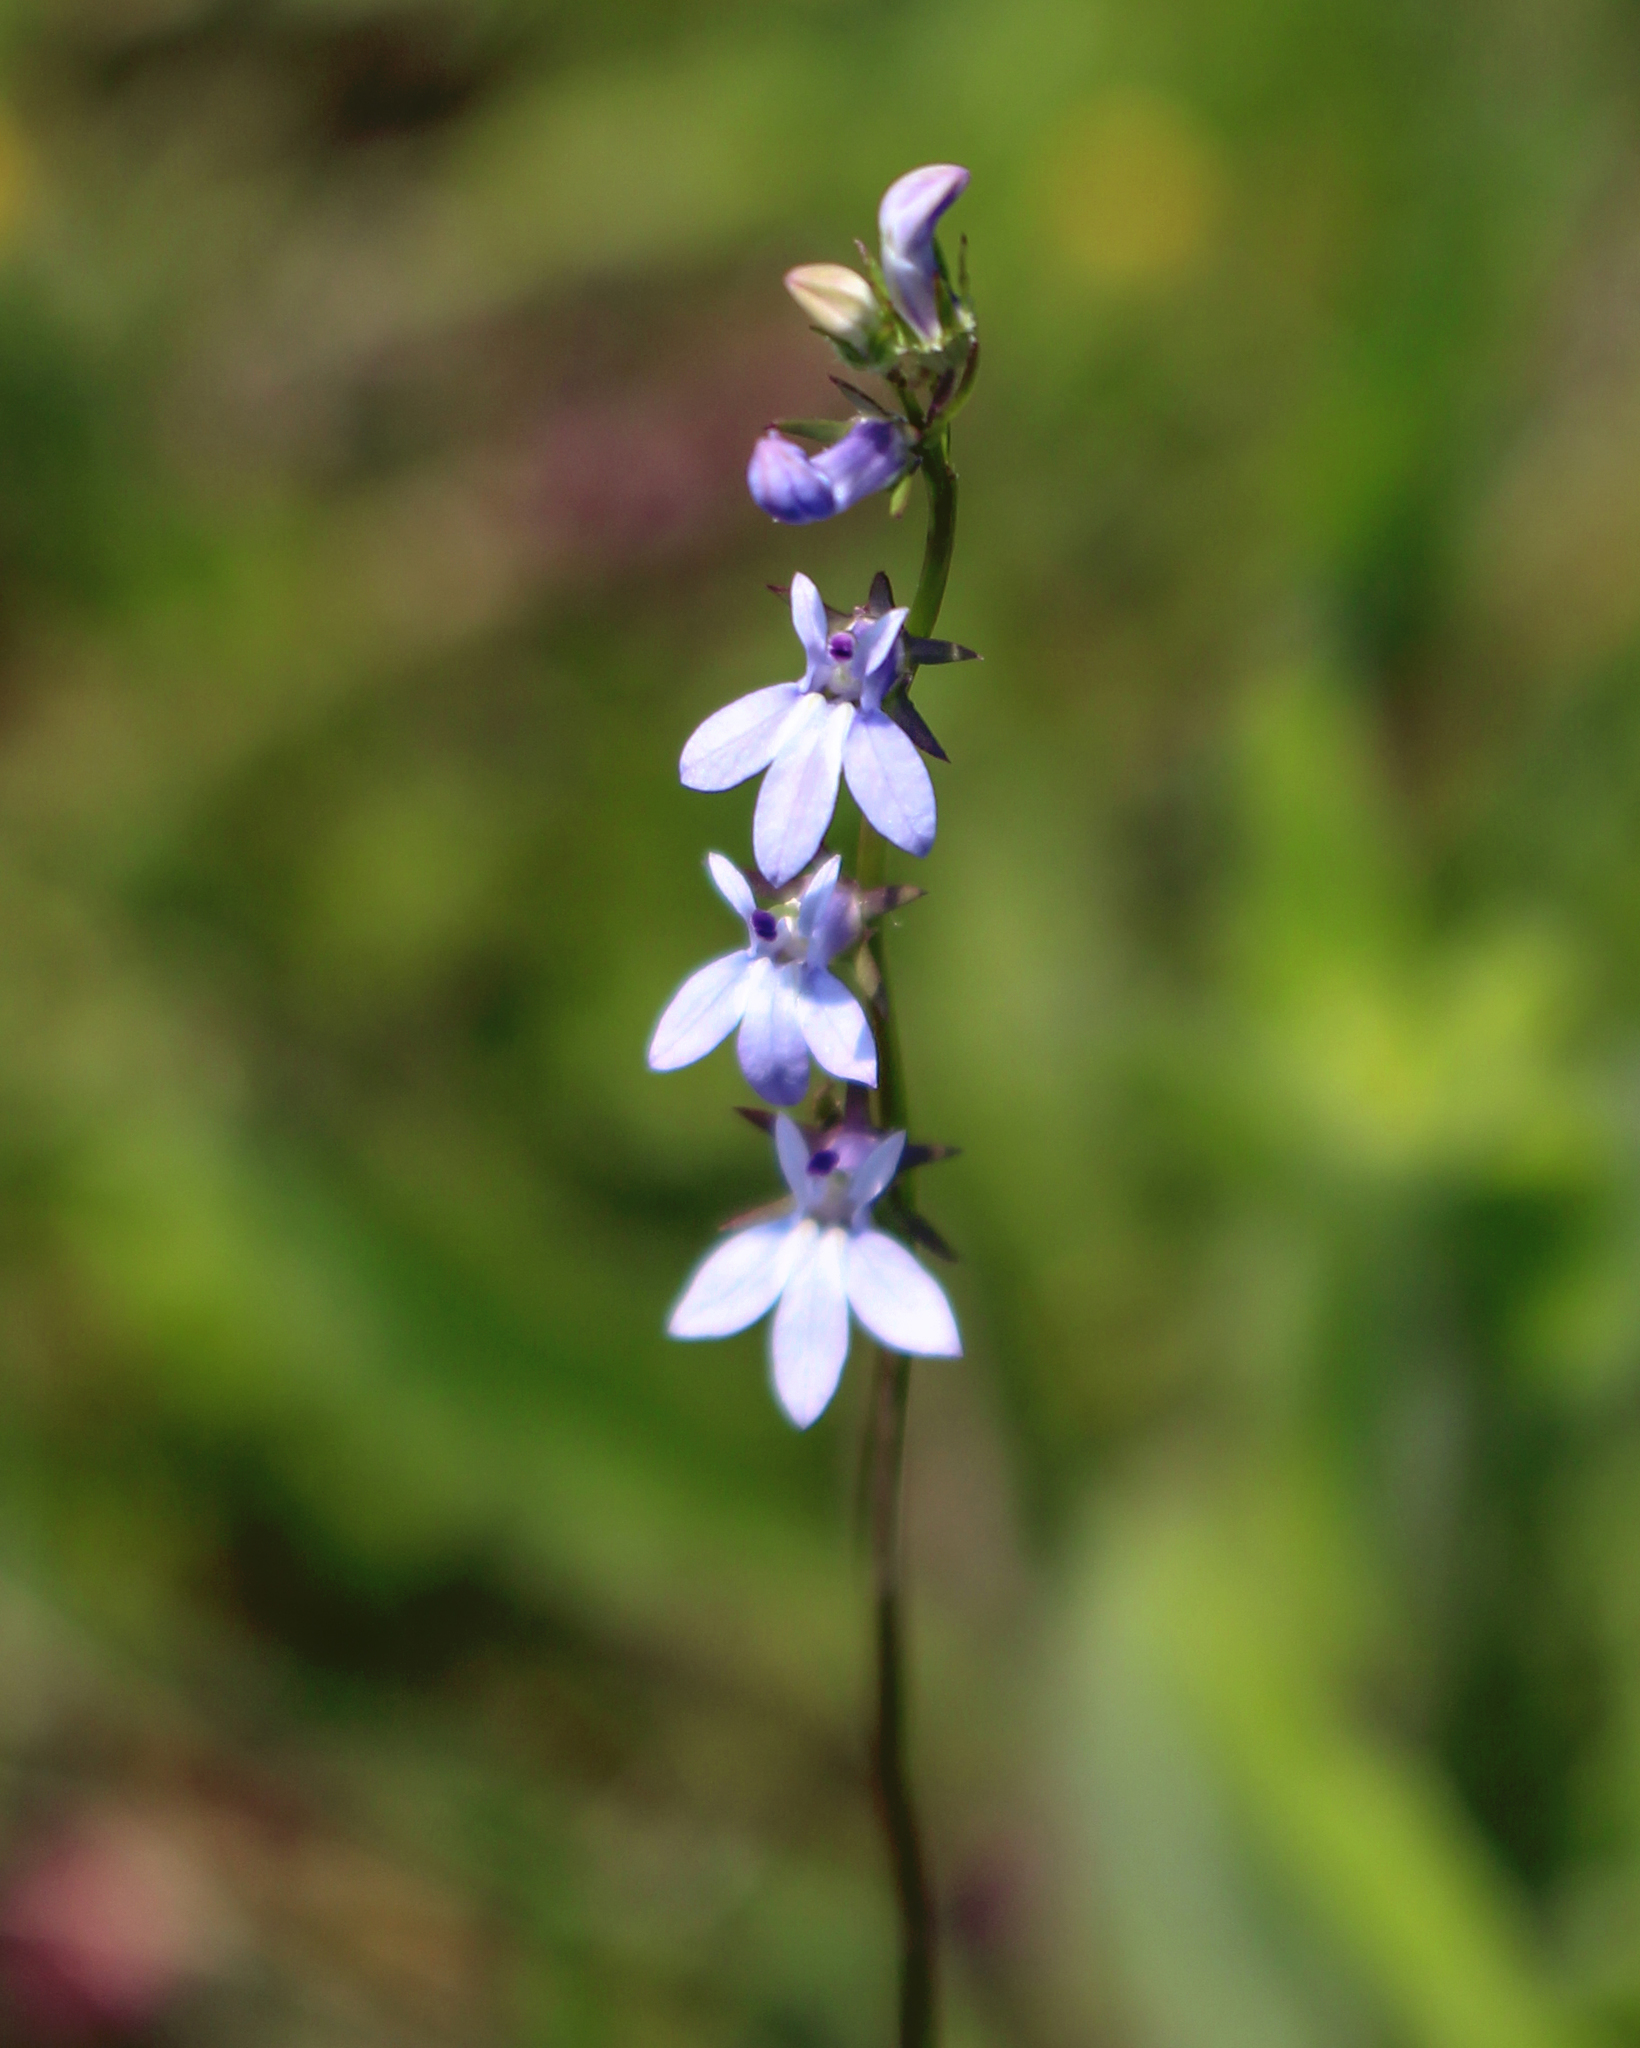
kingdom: Plantae
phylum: Tracheophyta
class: Magnoliopsida
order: Asterales
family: Campanulaceae
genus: Lobelia
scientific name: Lobelia spicata
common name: Pale-spike lobelia
